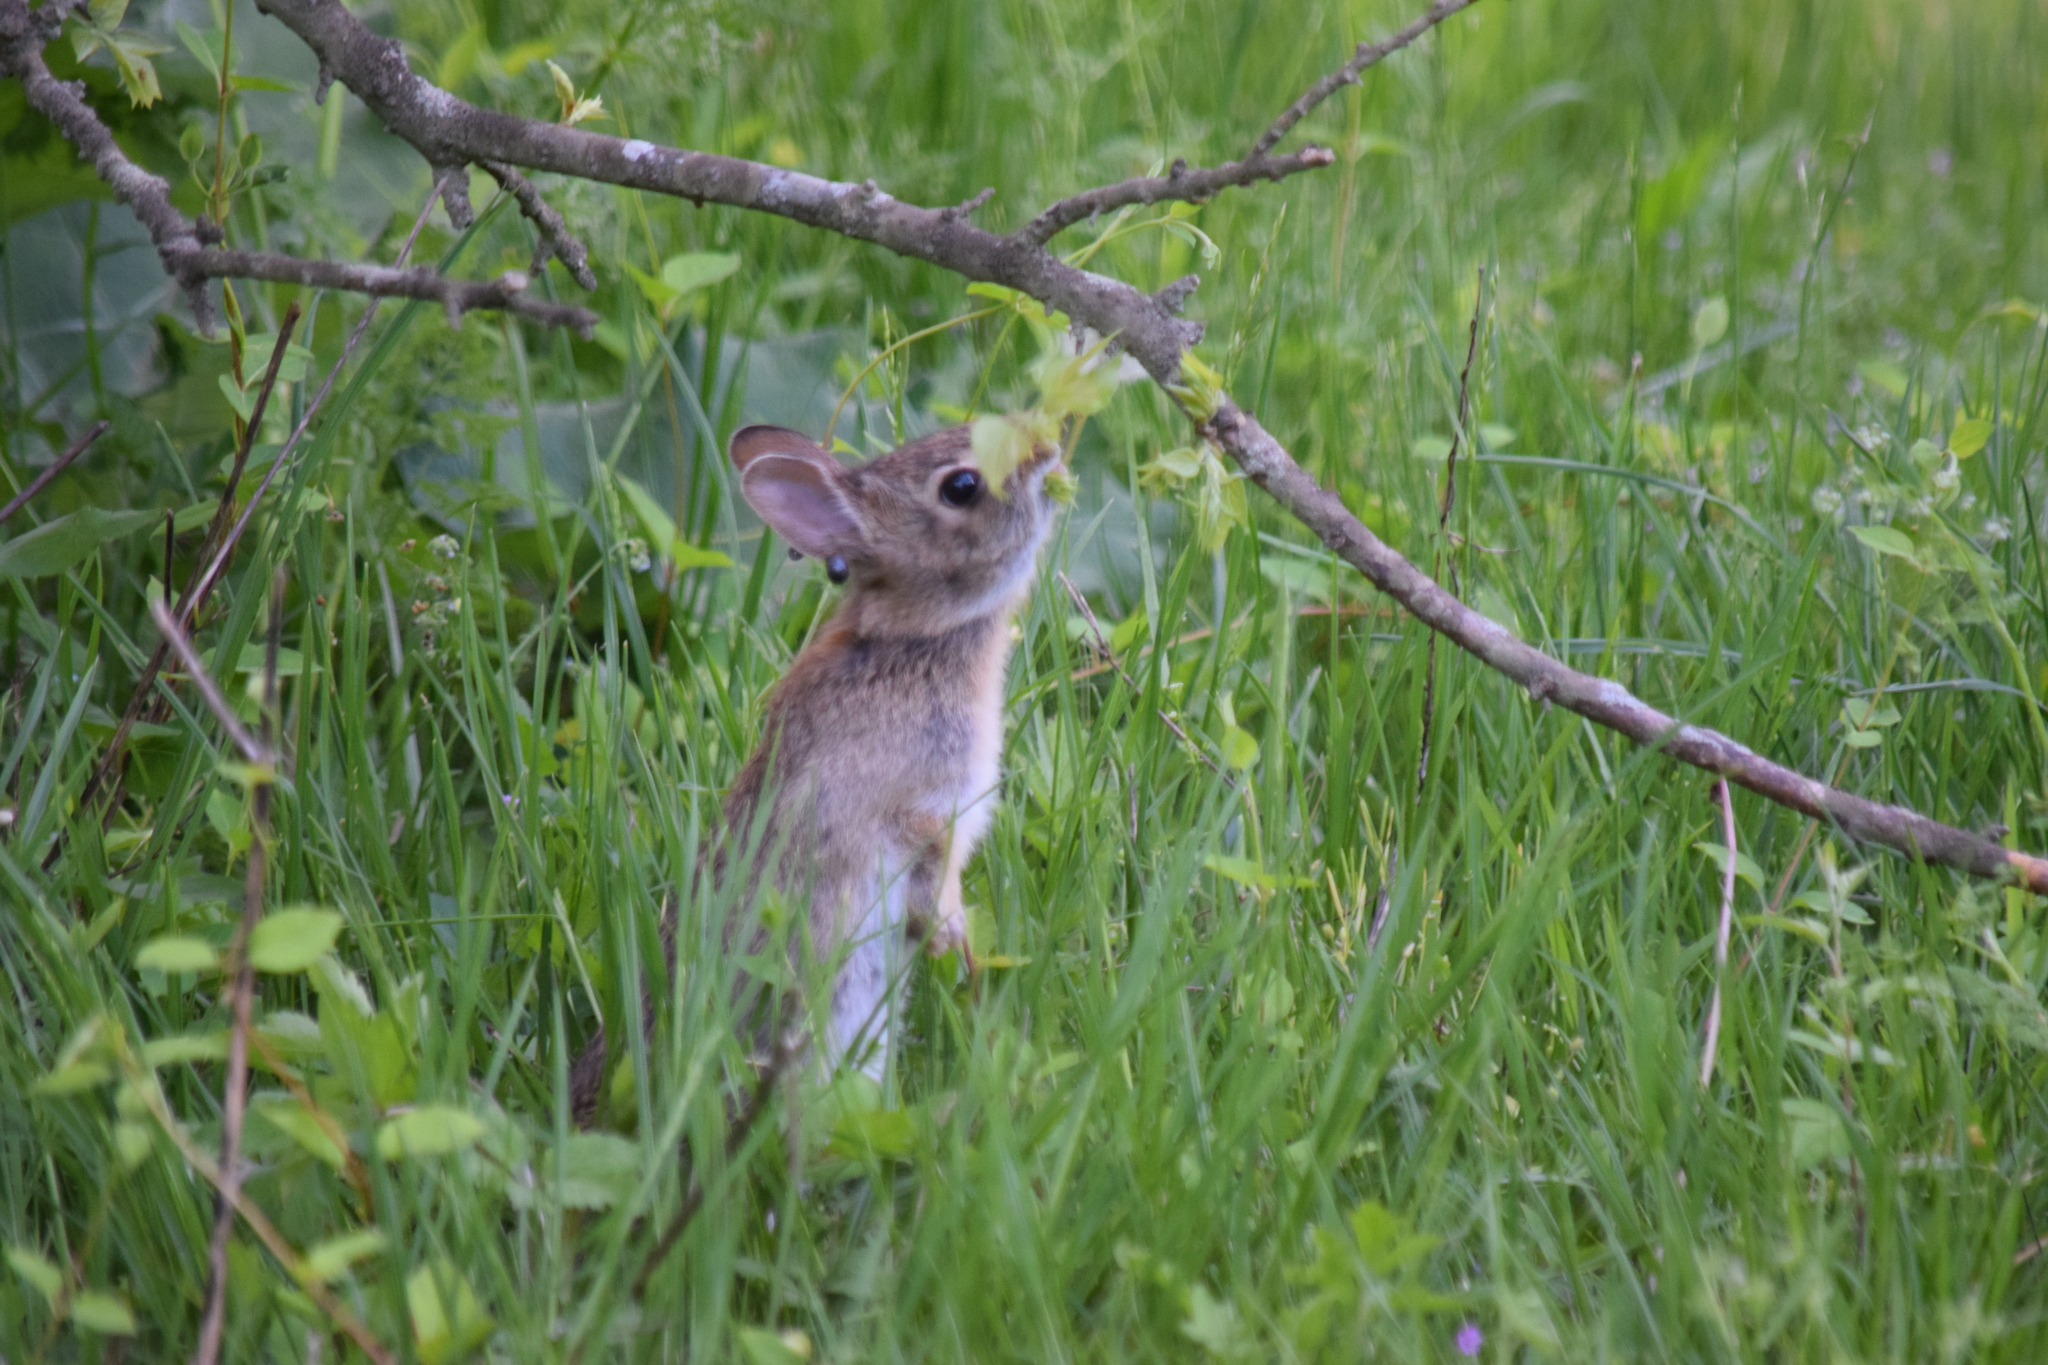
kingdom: Animalia
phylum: Chordata
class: Mammalia
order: Lagomorpha
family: Leporidae
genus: Sylvilagus
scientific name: Sylvilagus floridanus
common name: Eastern cottontail
